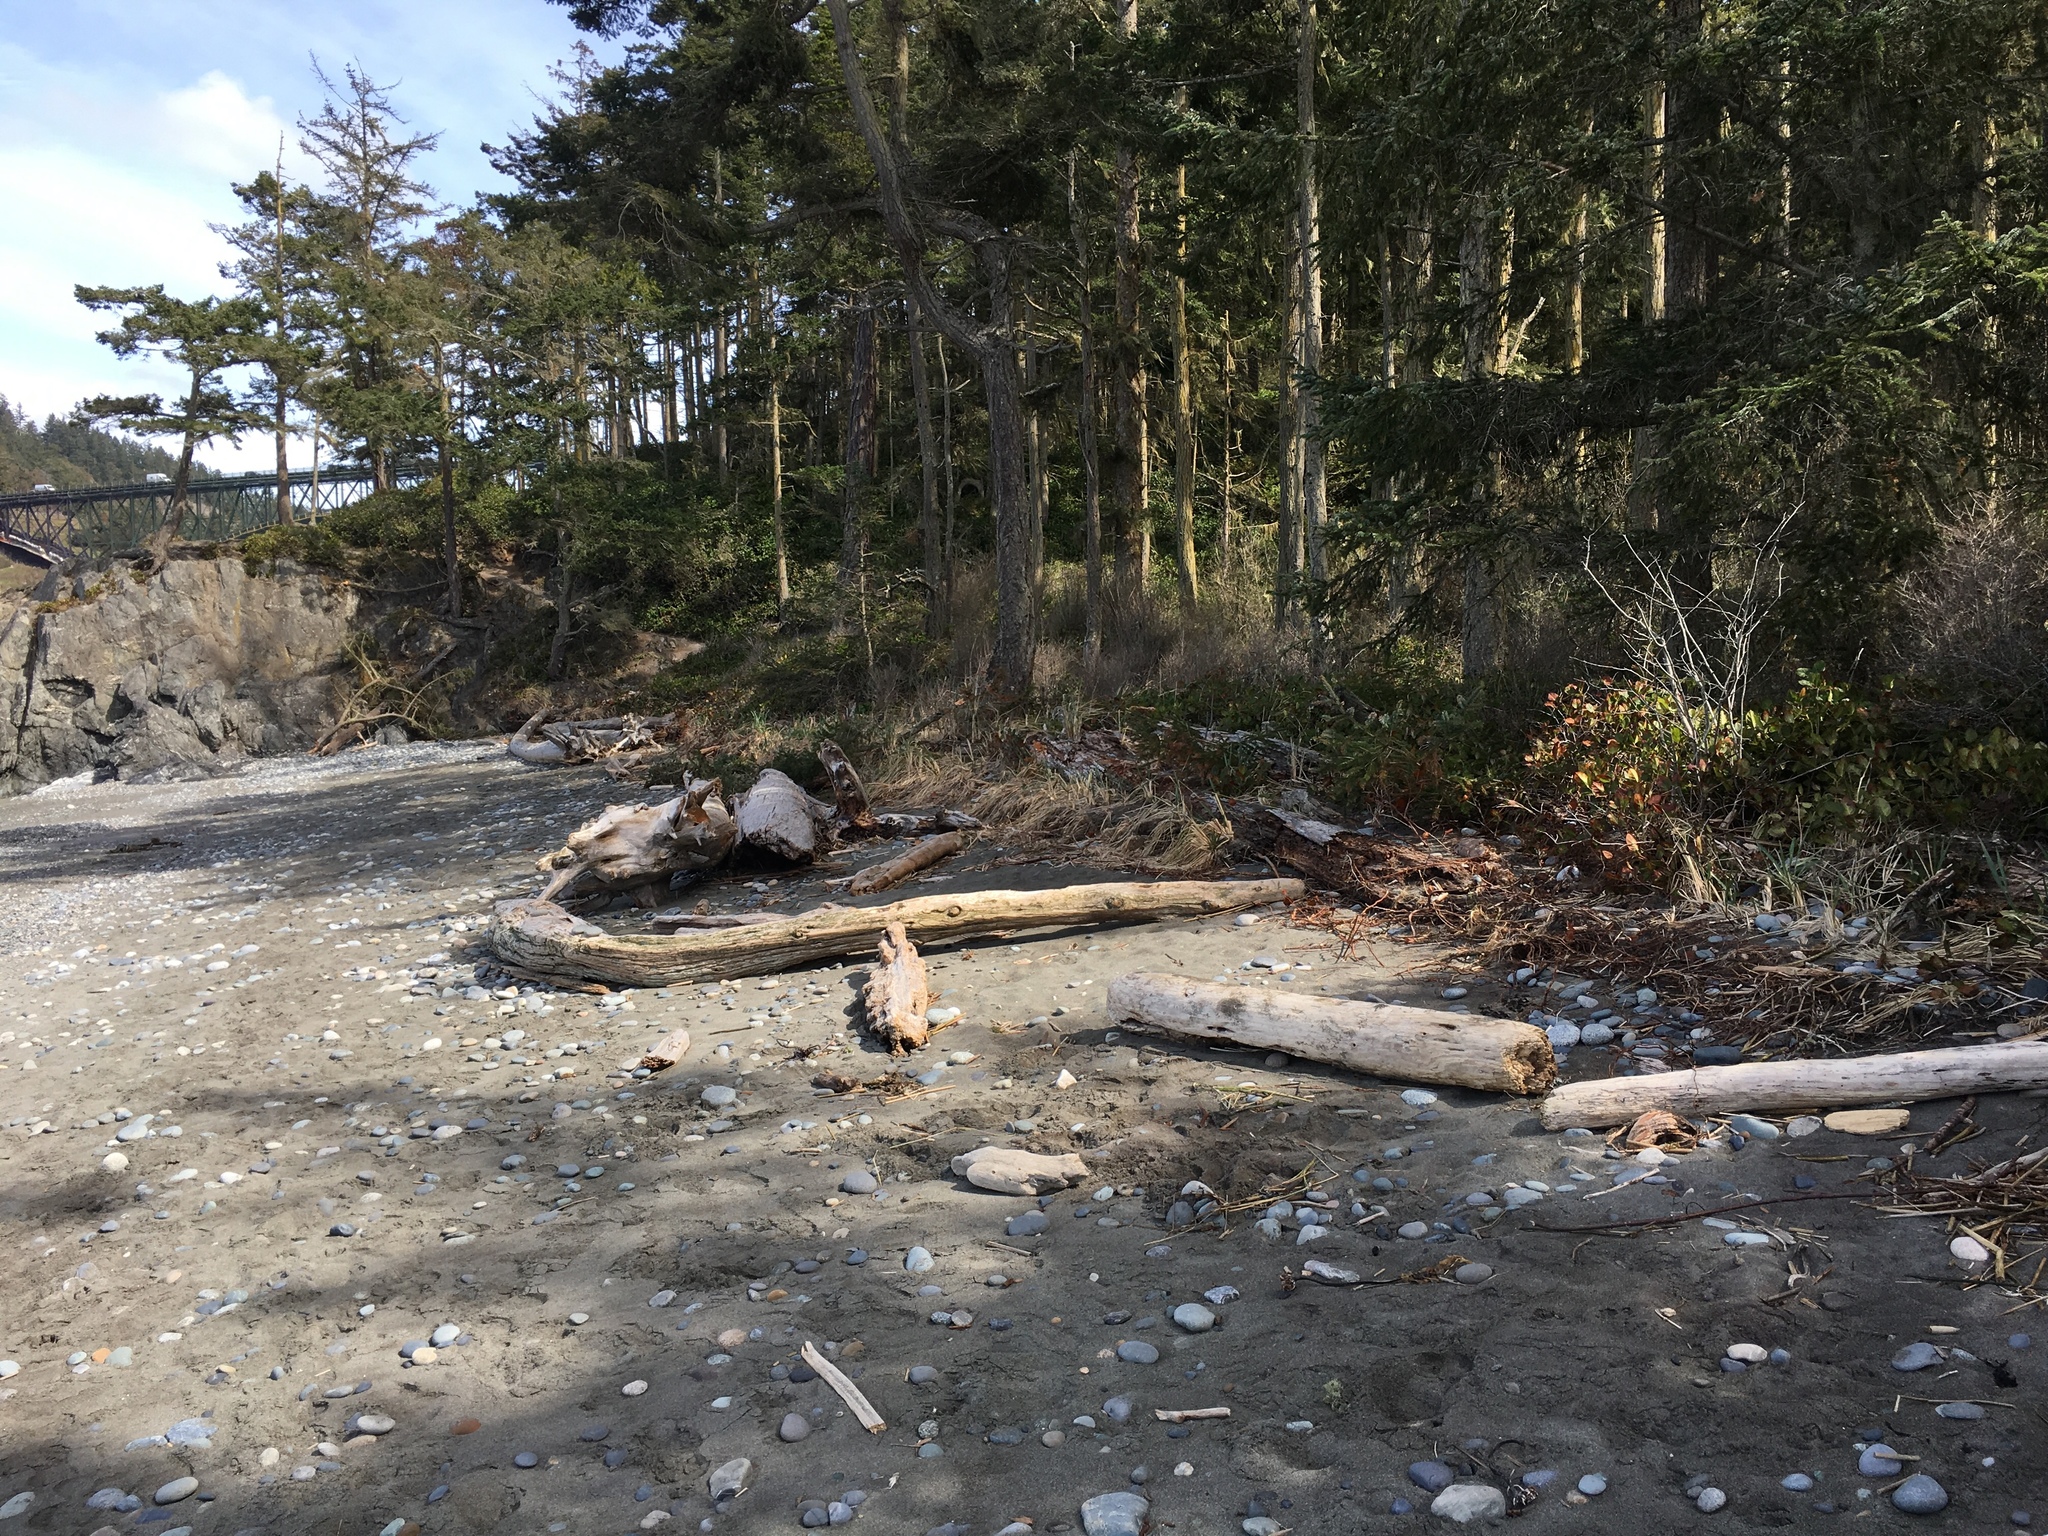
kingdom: Animalia
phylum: Arthropoda
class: Malacostraca
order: Isopoda
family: Armadillidiidae
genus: Armadillidium
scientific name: Armadillidium vulgare
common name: Common pill woodlouse
